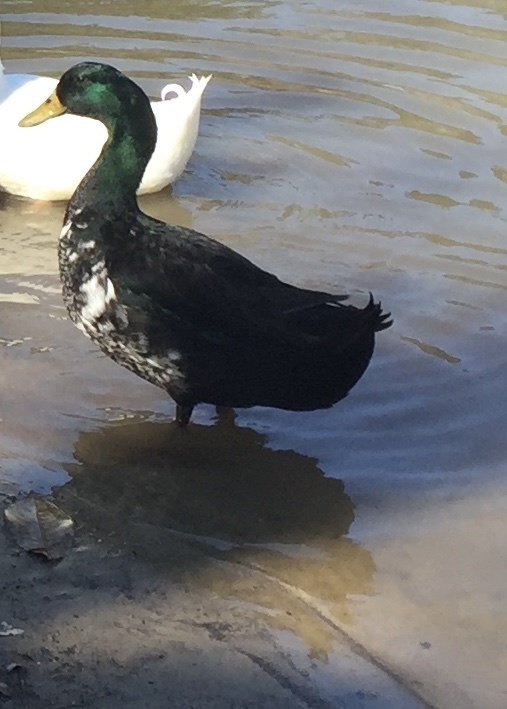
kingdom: Animalia
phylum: Chordata
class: Aves
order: Anseriformes
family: Anatidae
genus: Anas
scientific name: Anas platyrhynchos
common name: Mallard
